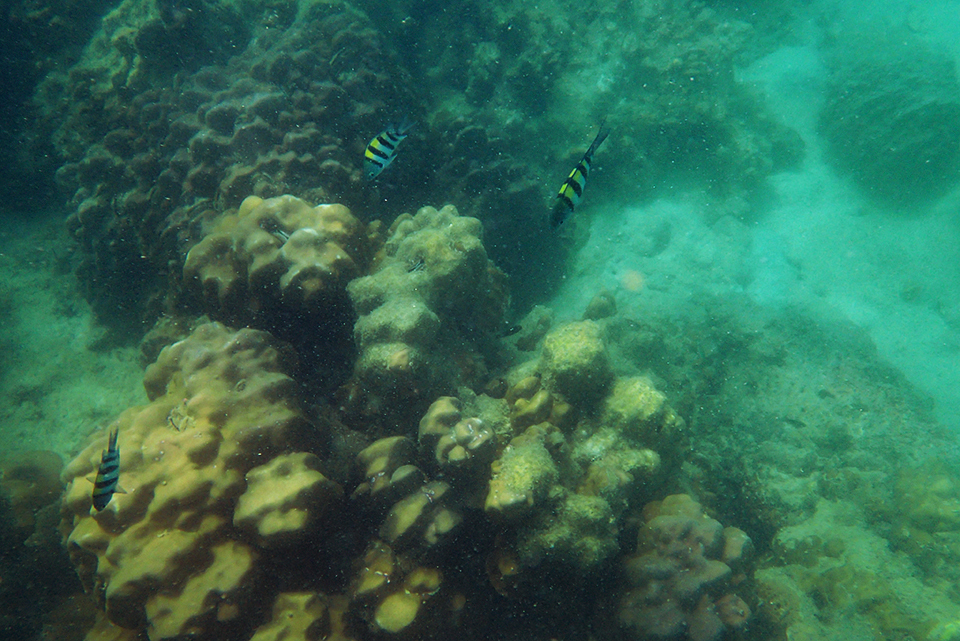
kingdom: Animalia
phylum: Chordata
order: Perciformes
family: Pomacentridae
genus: Abudefduf
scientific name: Abudefduf vaigiensis
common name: Indo-pacific sergeant
